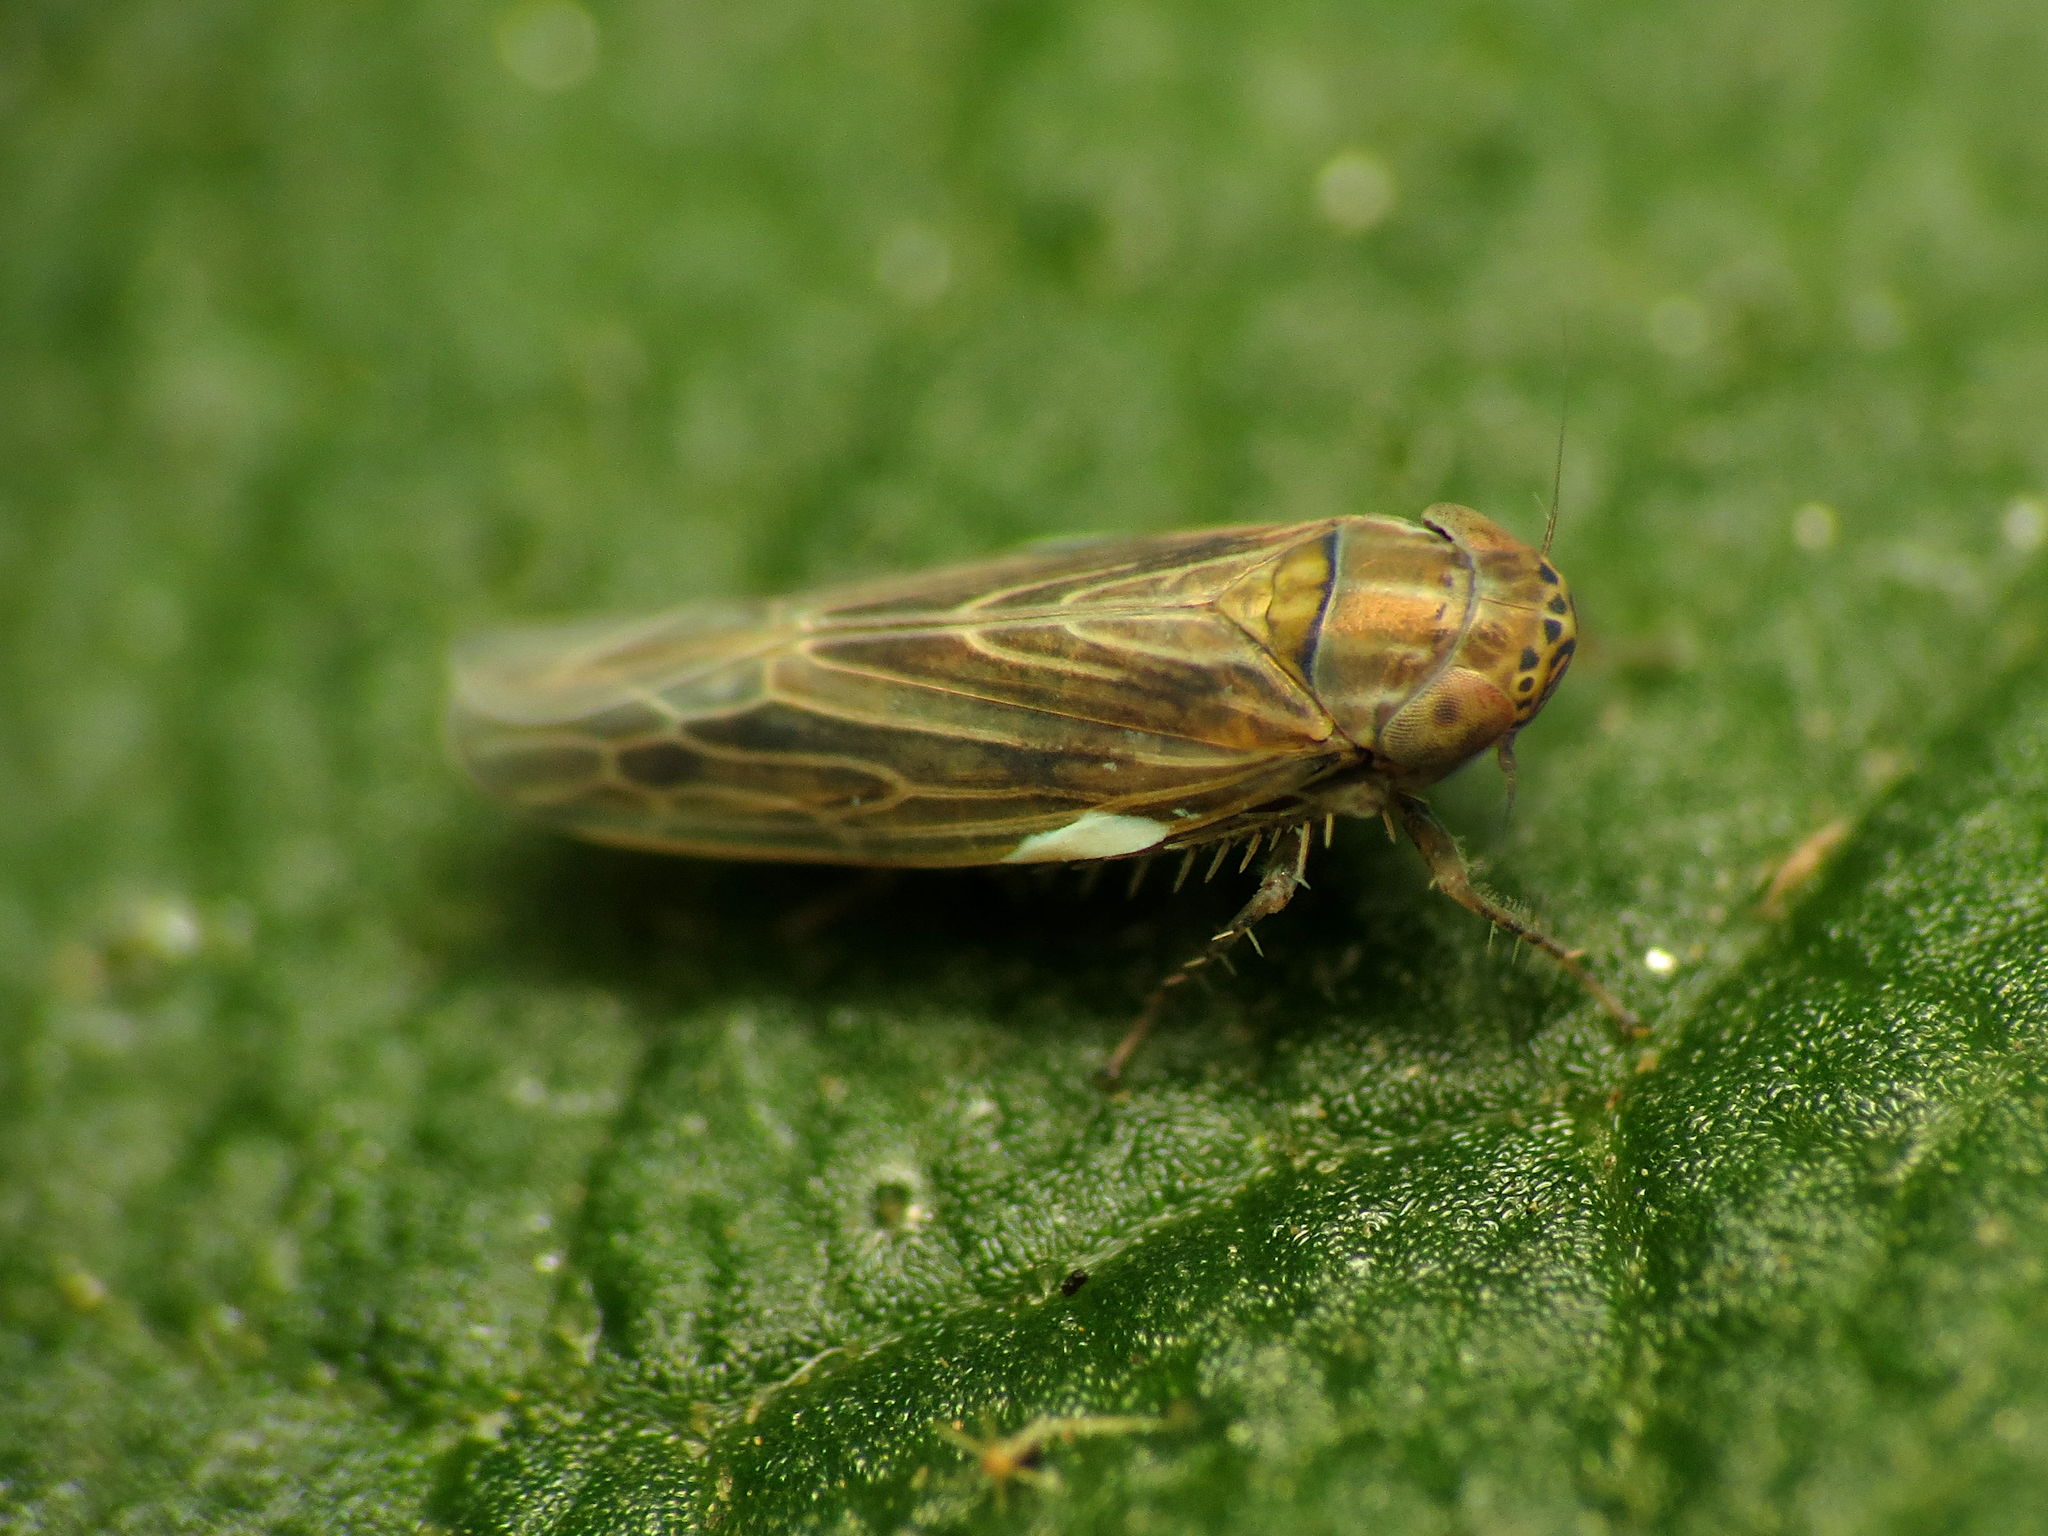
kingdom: Animalia
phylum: Arthropoda
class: Insecta
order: Hemiptera
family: Cicadellidae
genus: Graminella
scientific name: Graminella nigrifrons
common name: Blackfaced leafhopper
